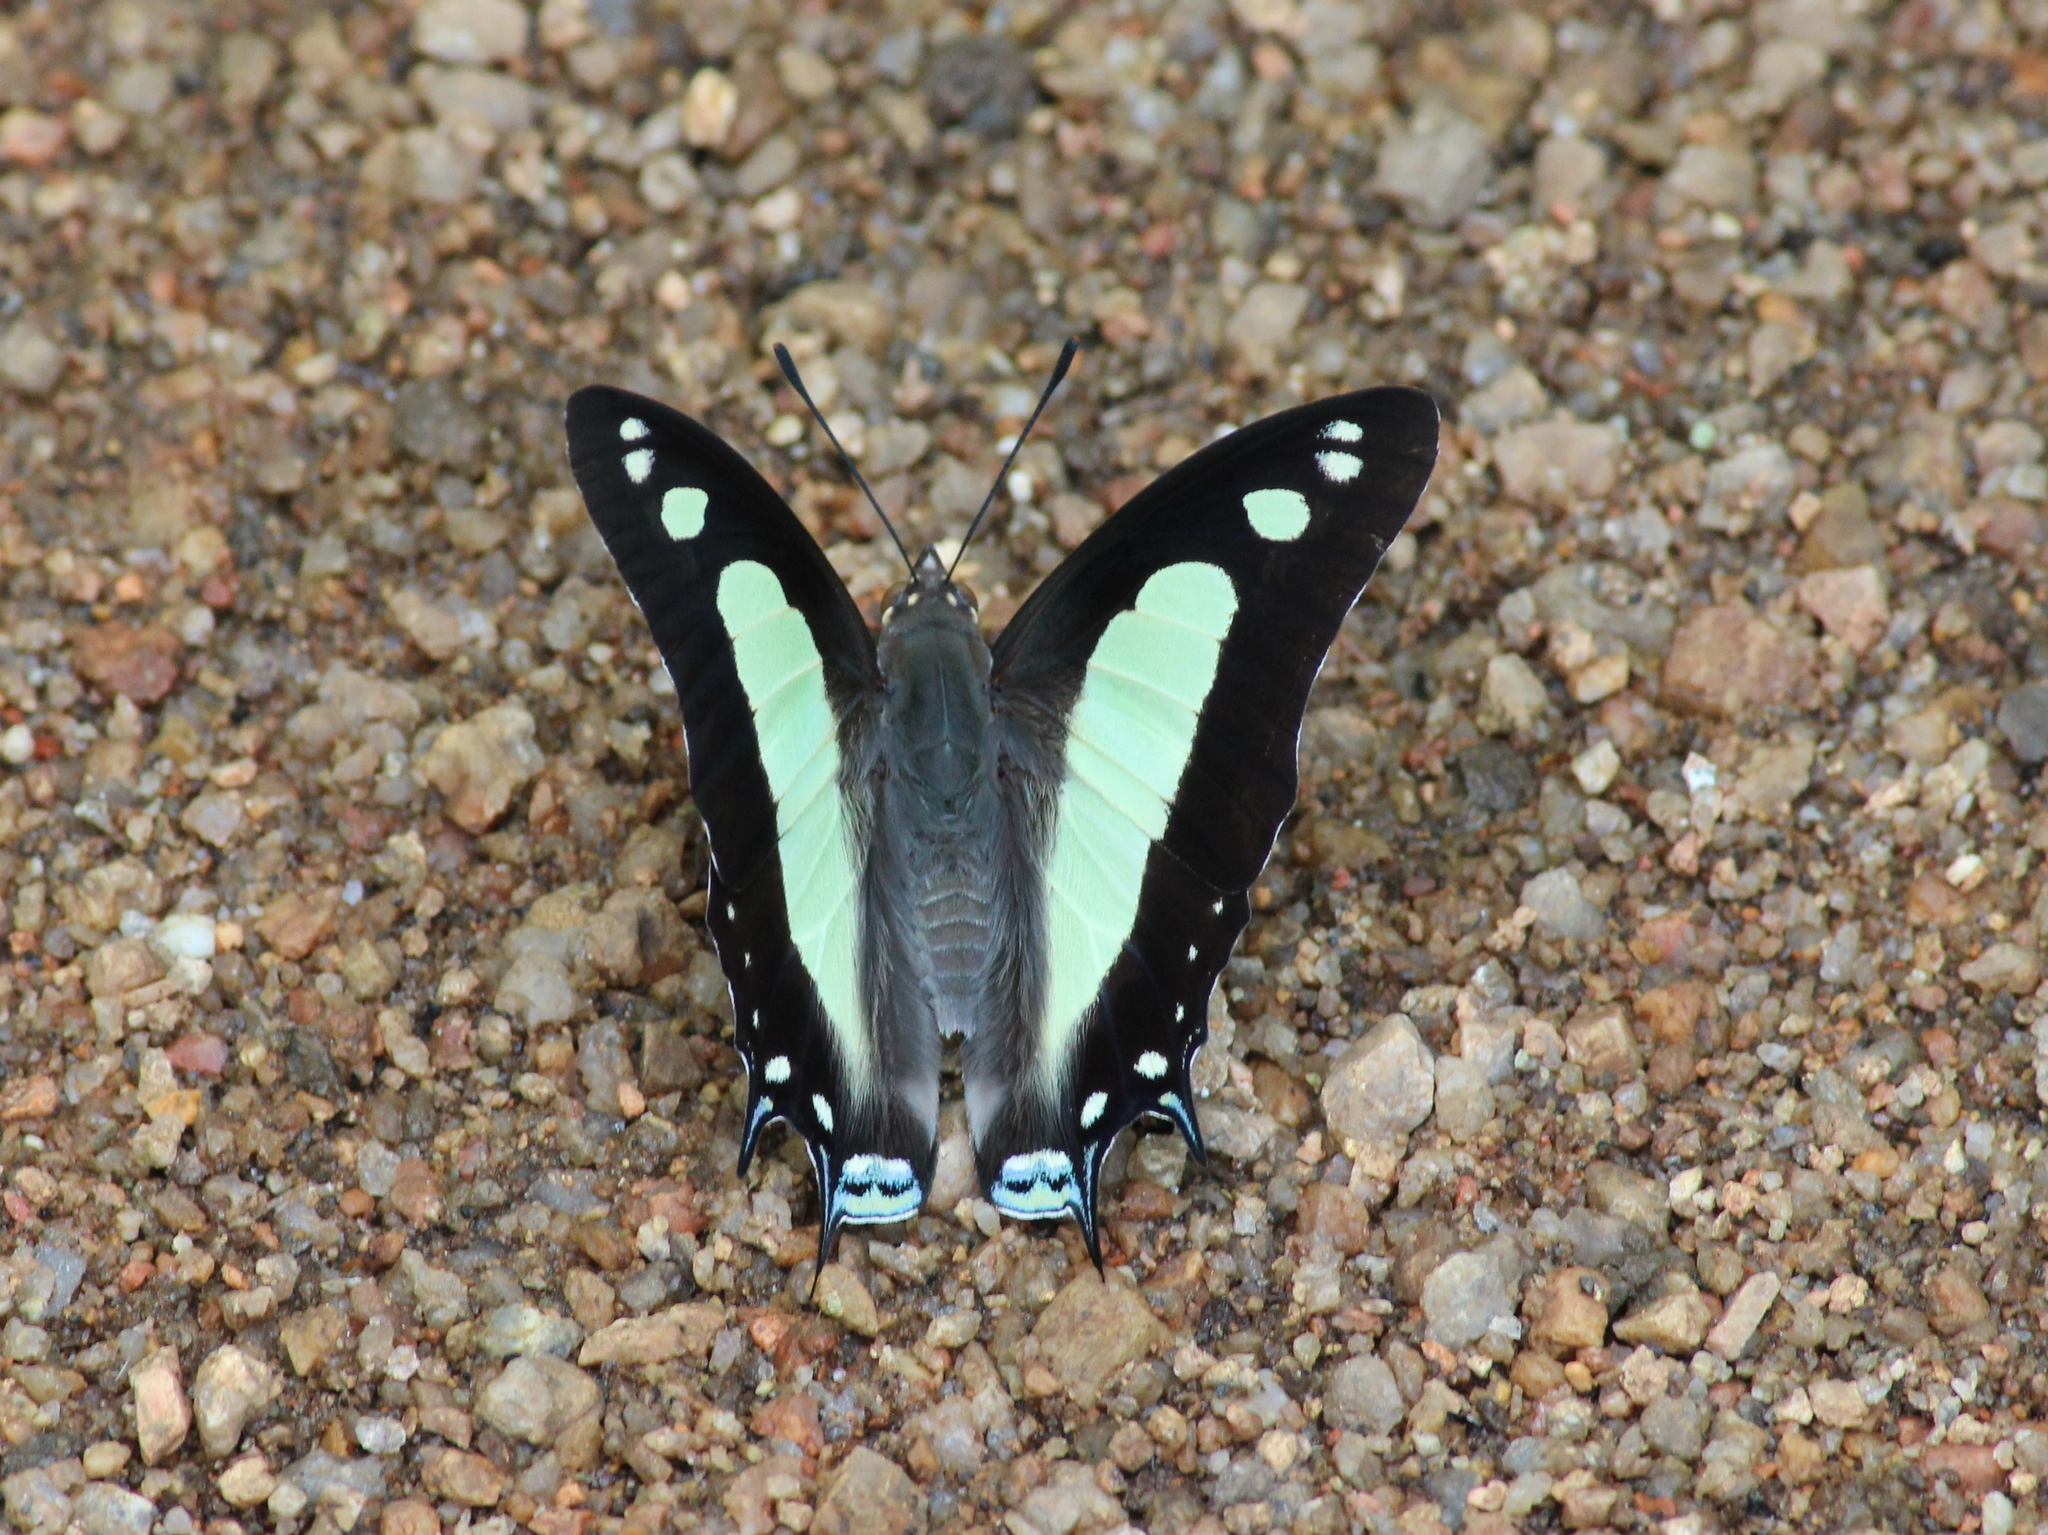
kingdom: Animalia
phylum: Arthropoda
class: Insecta
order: Lepidoptera
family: Nymphalidae
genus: Polyura
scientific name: Polyura agrarius
